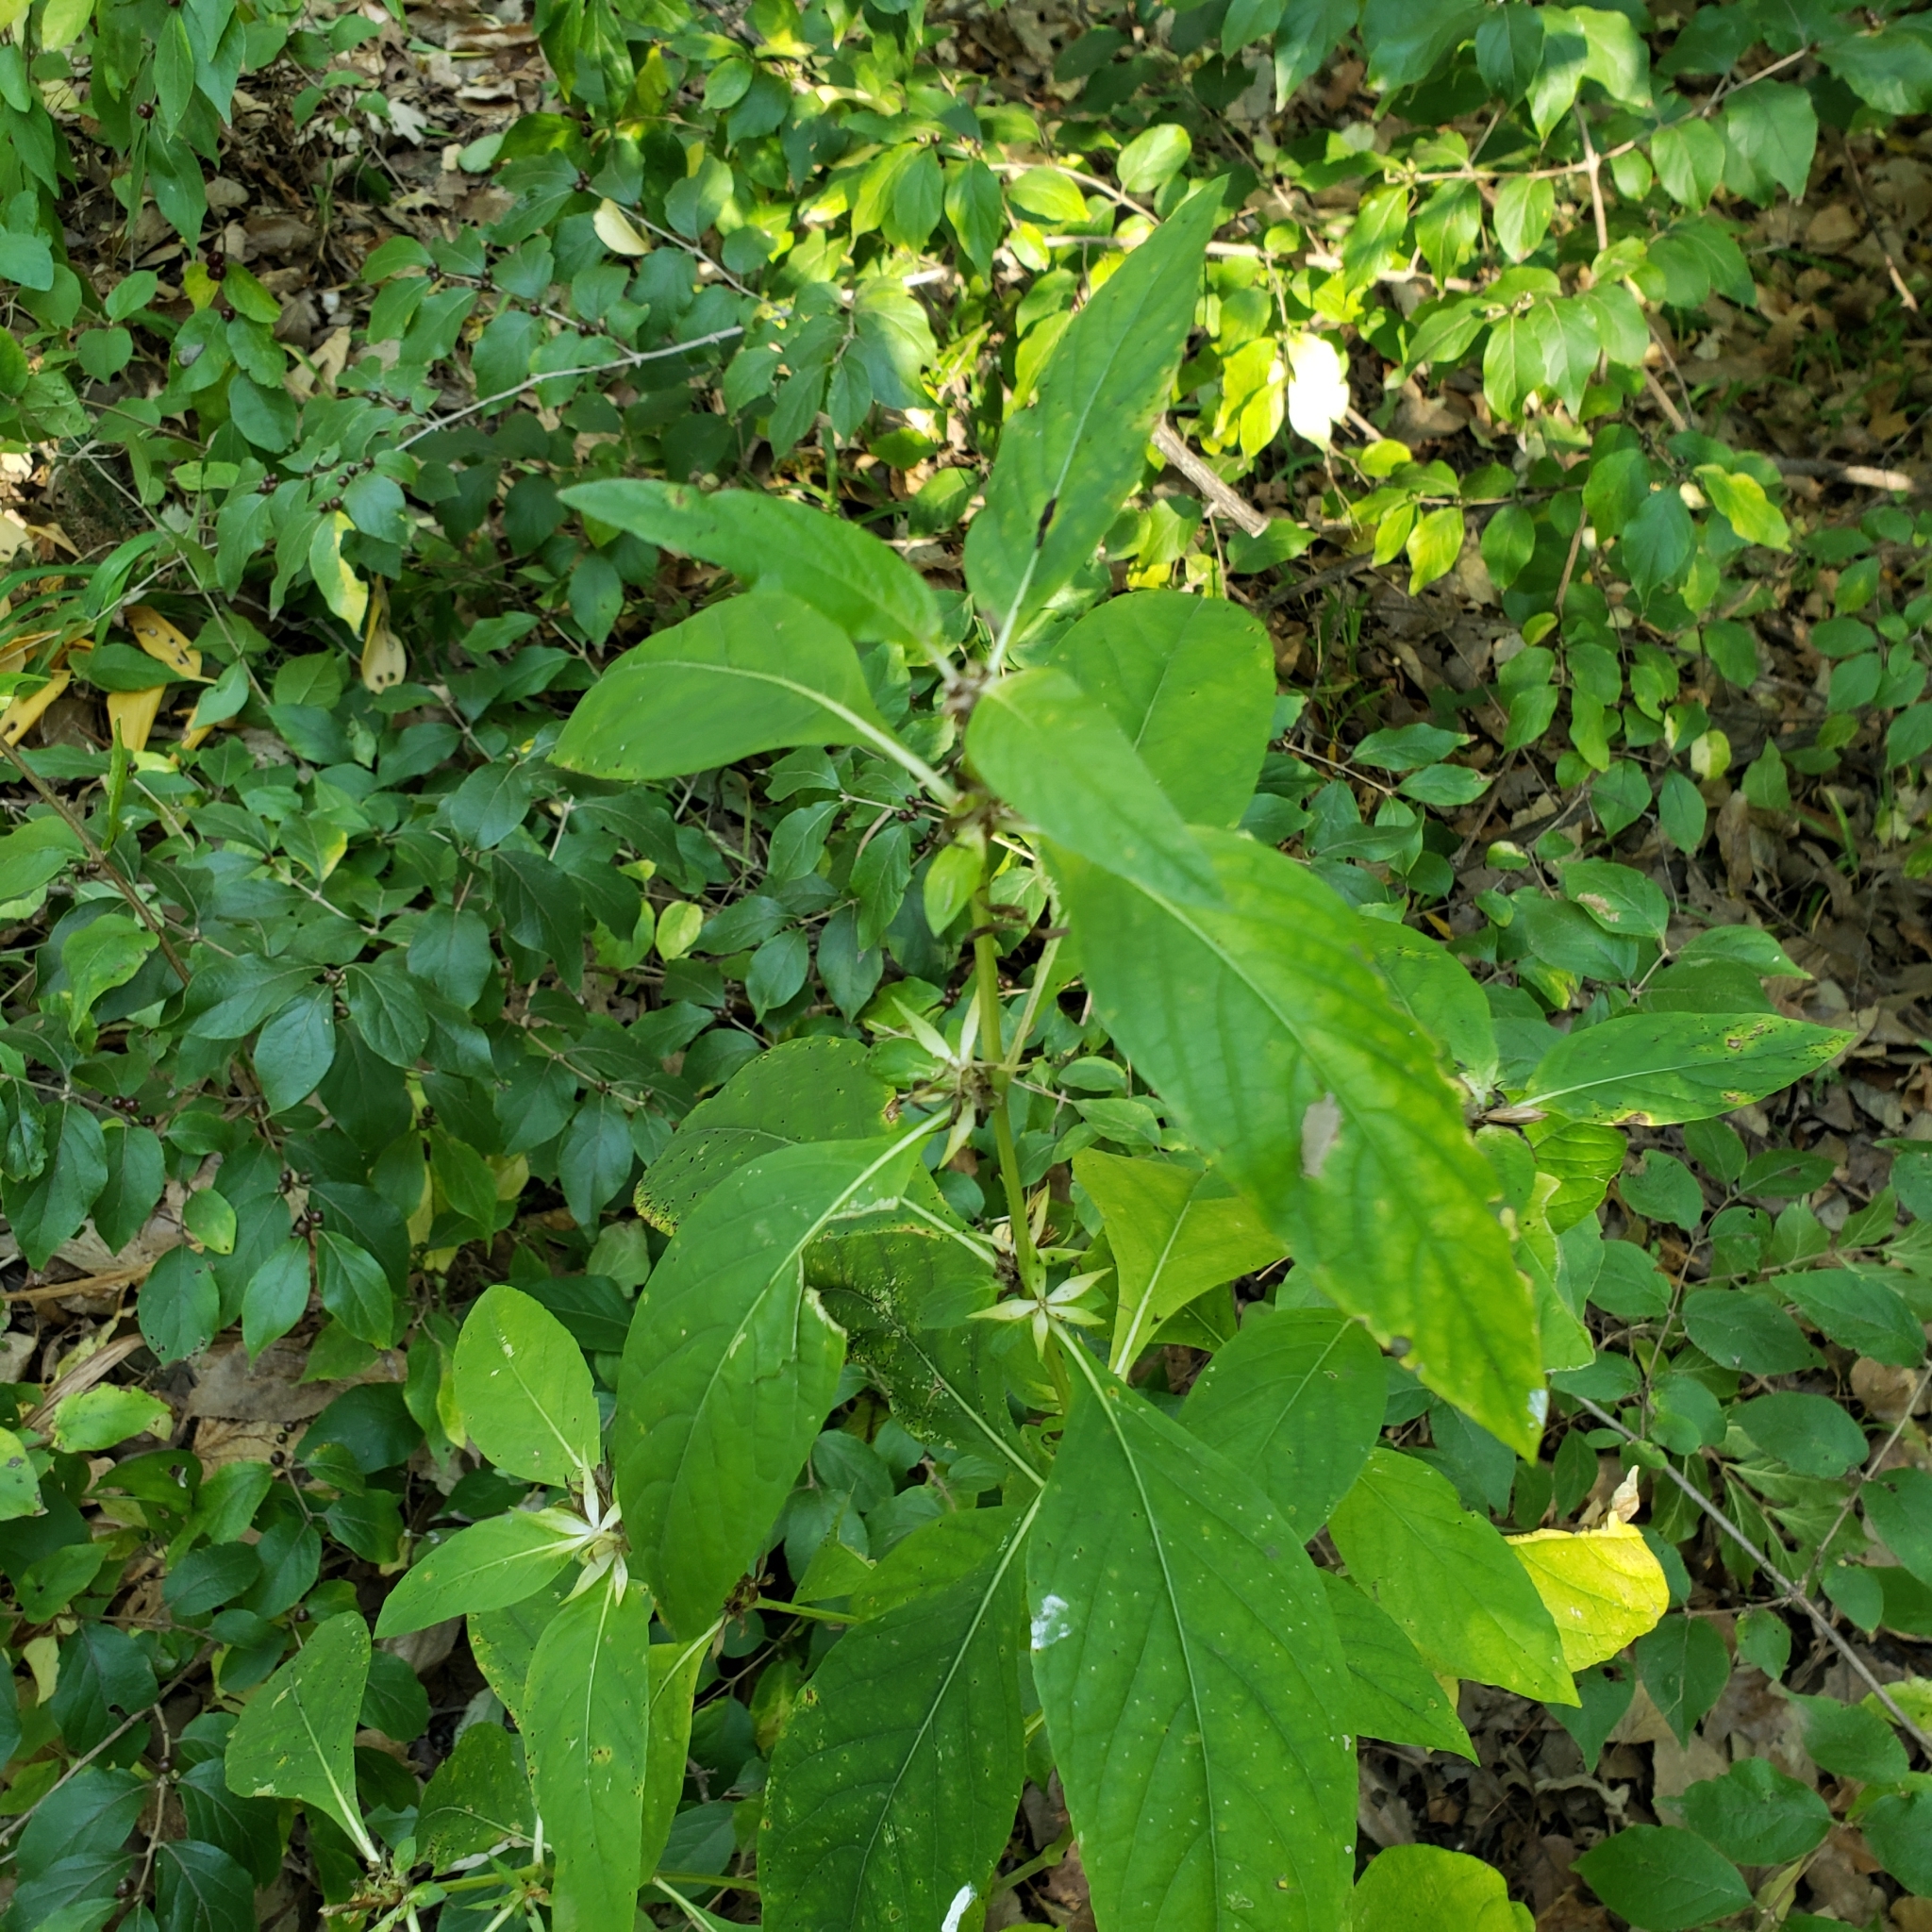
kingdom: Plantae
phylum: Tracheophyta
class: Magnoliopsida
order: Lamiales
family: Acanthaceae
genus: Ruellia
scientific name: Ruellia strepens
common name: Limestone wild petunia
